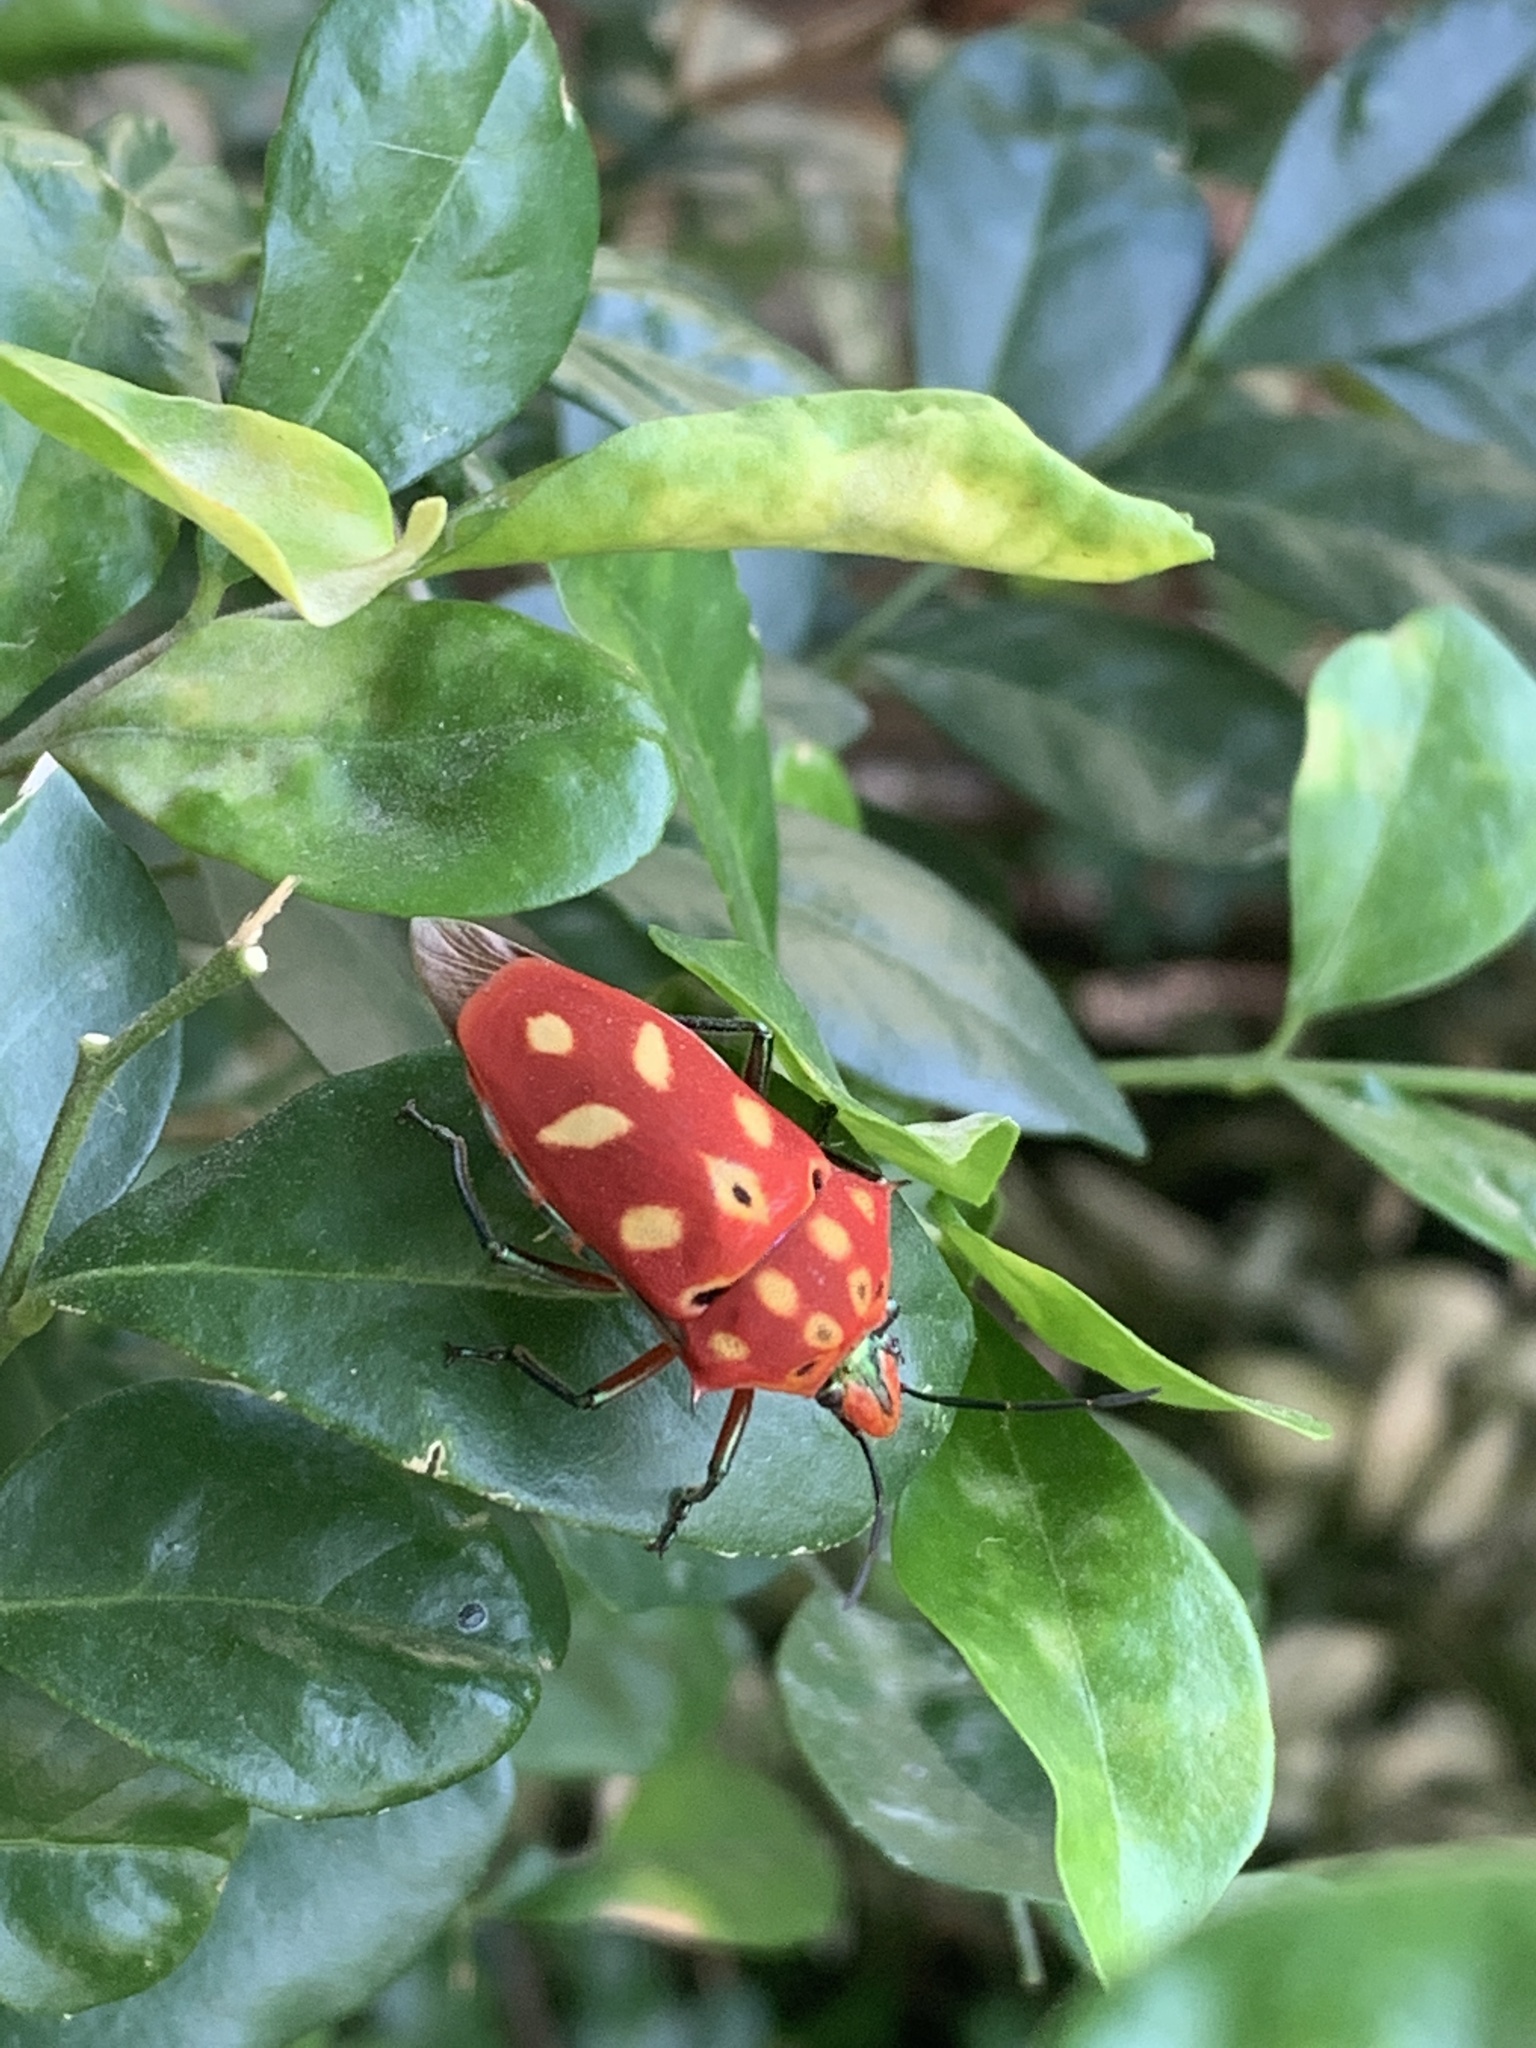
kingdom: Animalia
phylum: Arthropoda
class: Insecta
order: Hemiptera
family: Scutelleridae
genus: Cantao
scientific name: Cantao ocellatus
